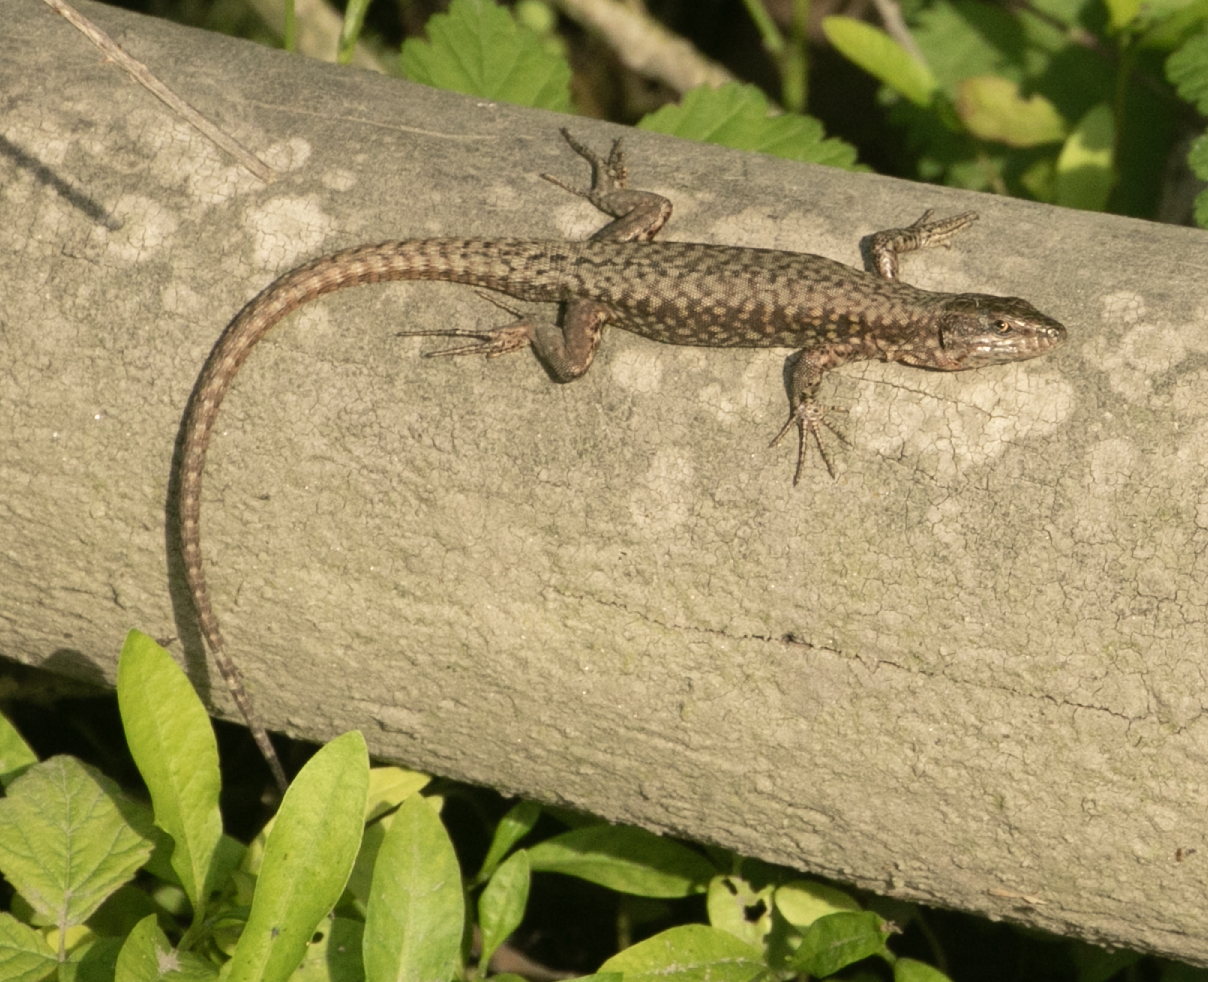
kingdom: Animalia
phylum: Chordata
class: Squamata
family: Lacertidae
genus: Podarcis
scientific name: Podarcis muralis
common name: Common wall lizard
